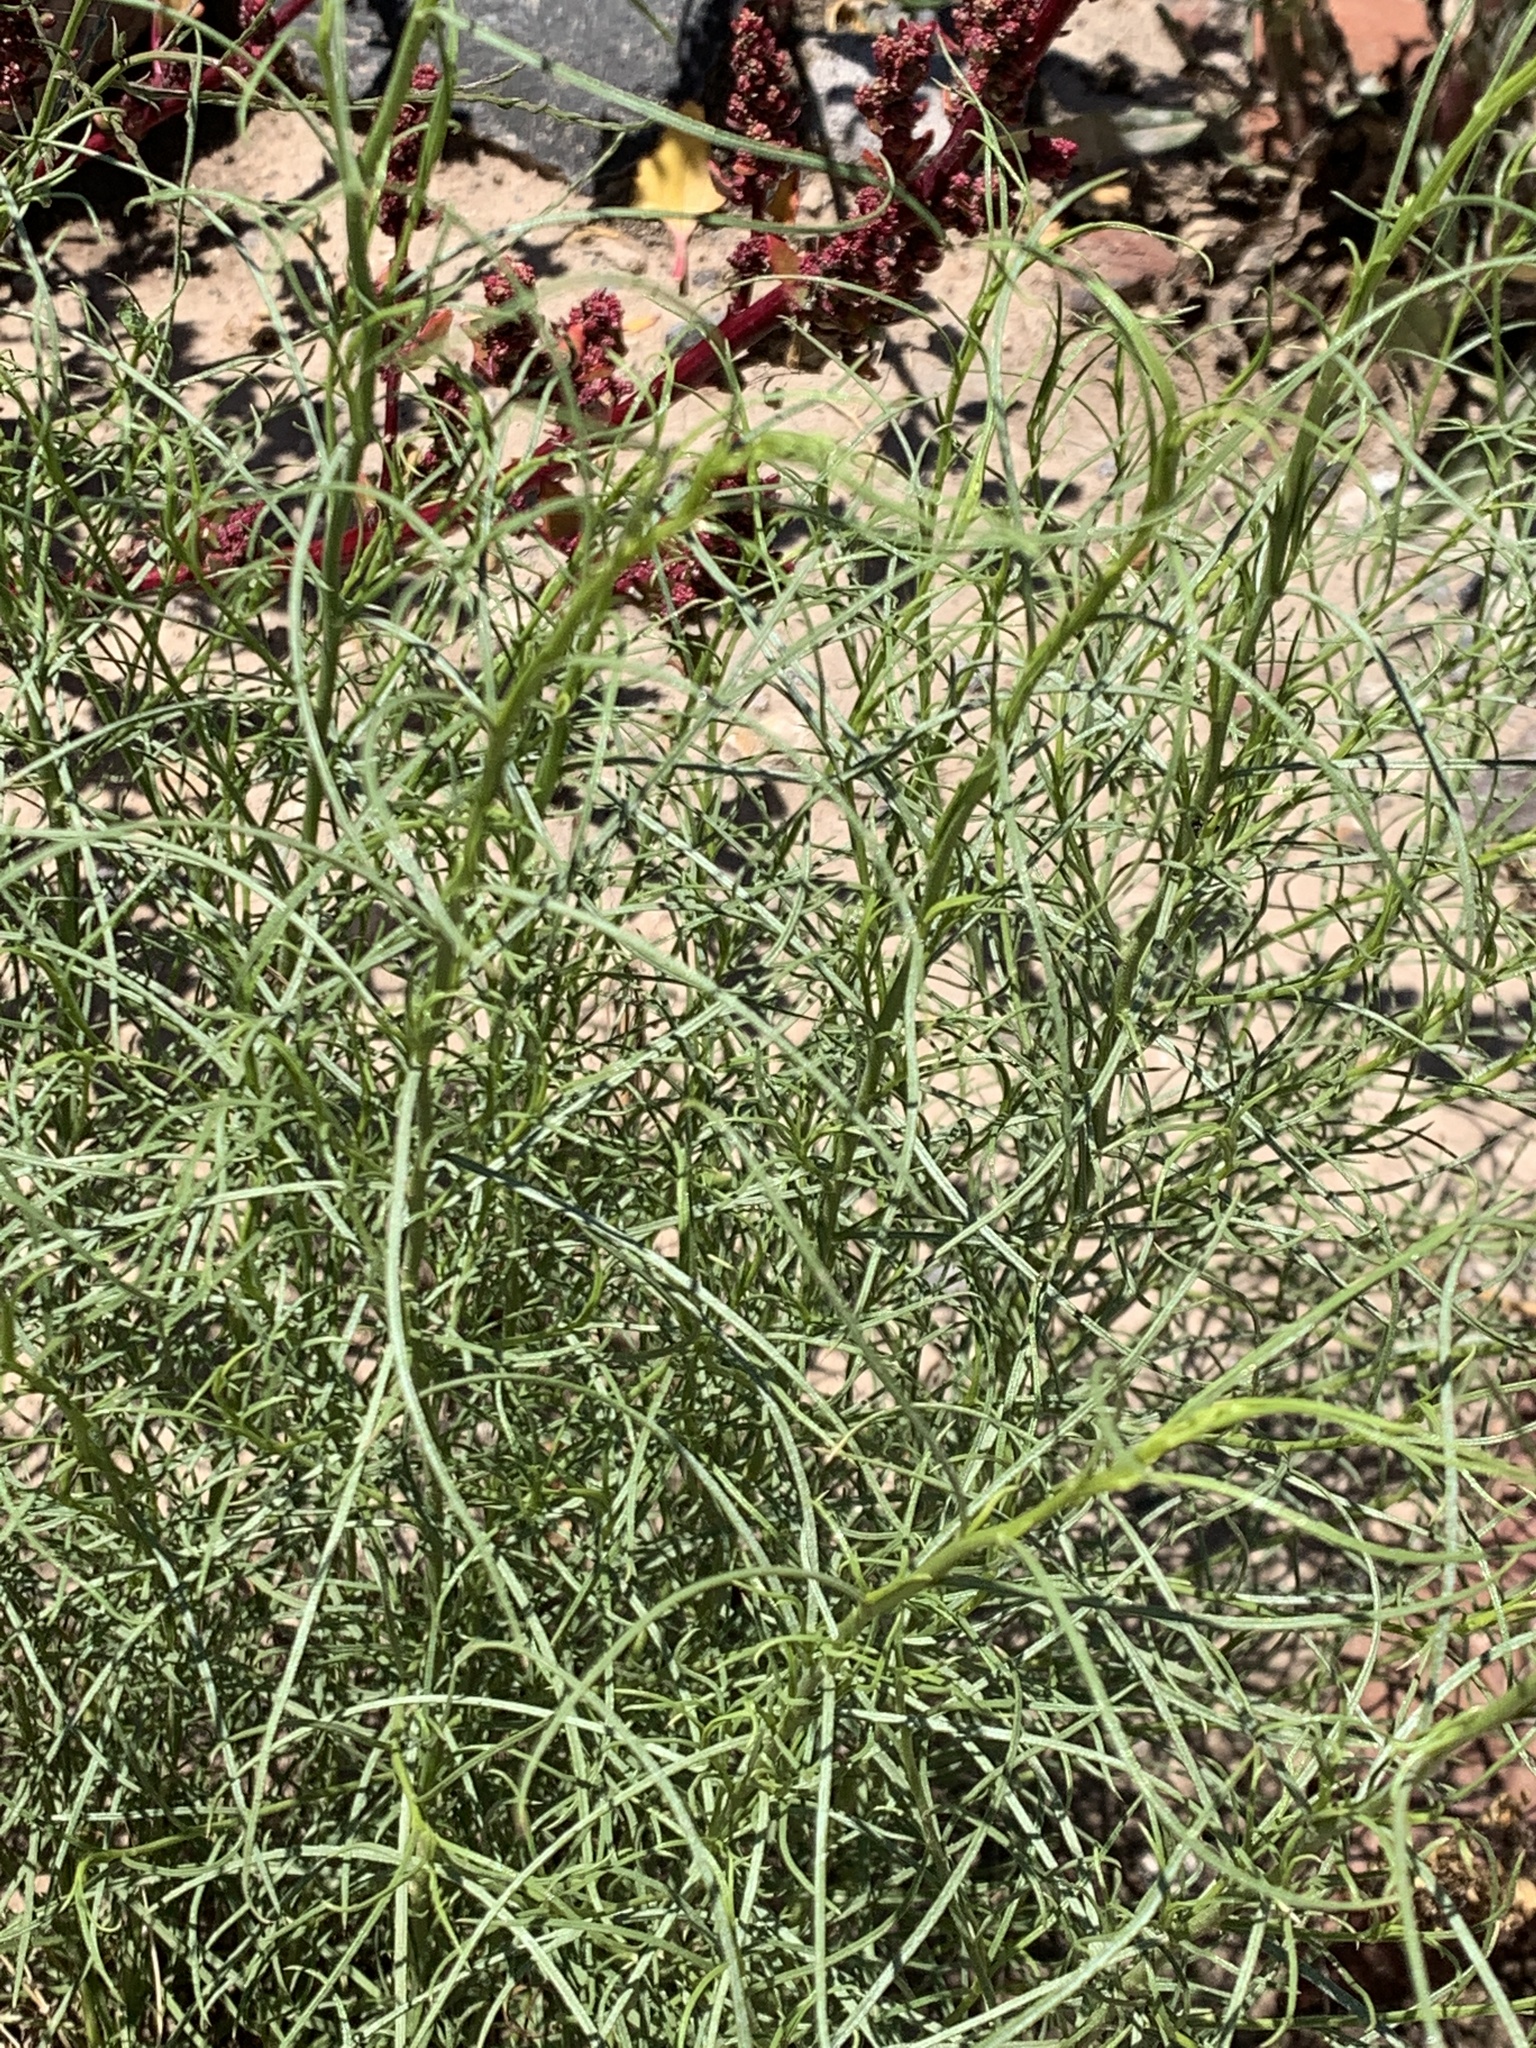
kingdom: Plantae
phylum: Tracheophyta
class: Magnoliopsida
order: Asterales
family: Asteraceae
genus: Baccharis
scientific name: Baccharis albida
